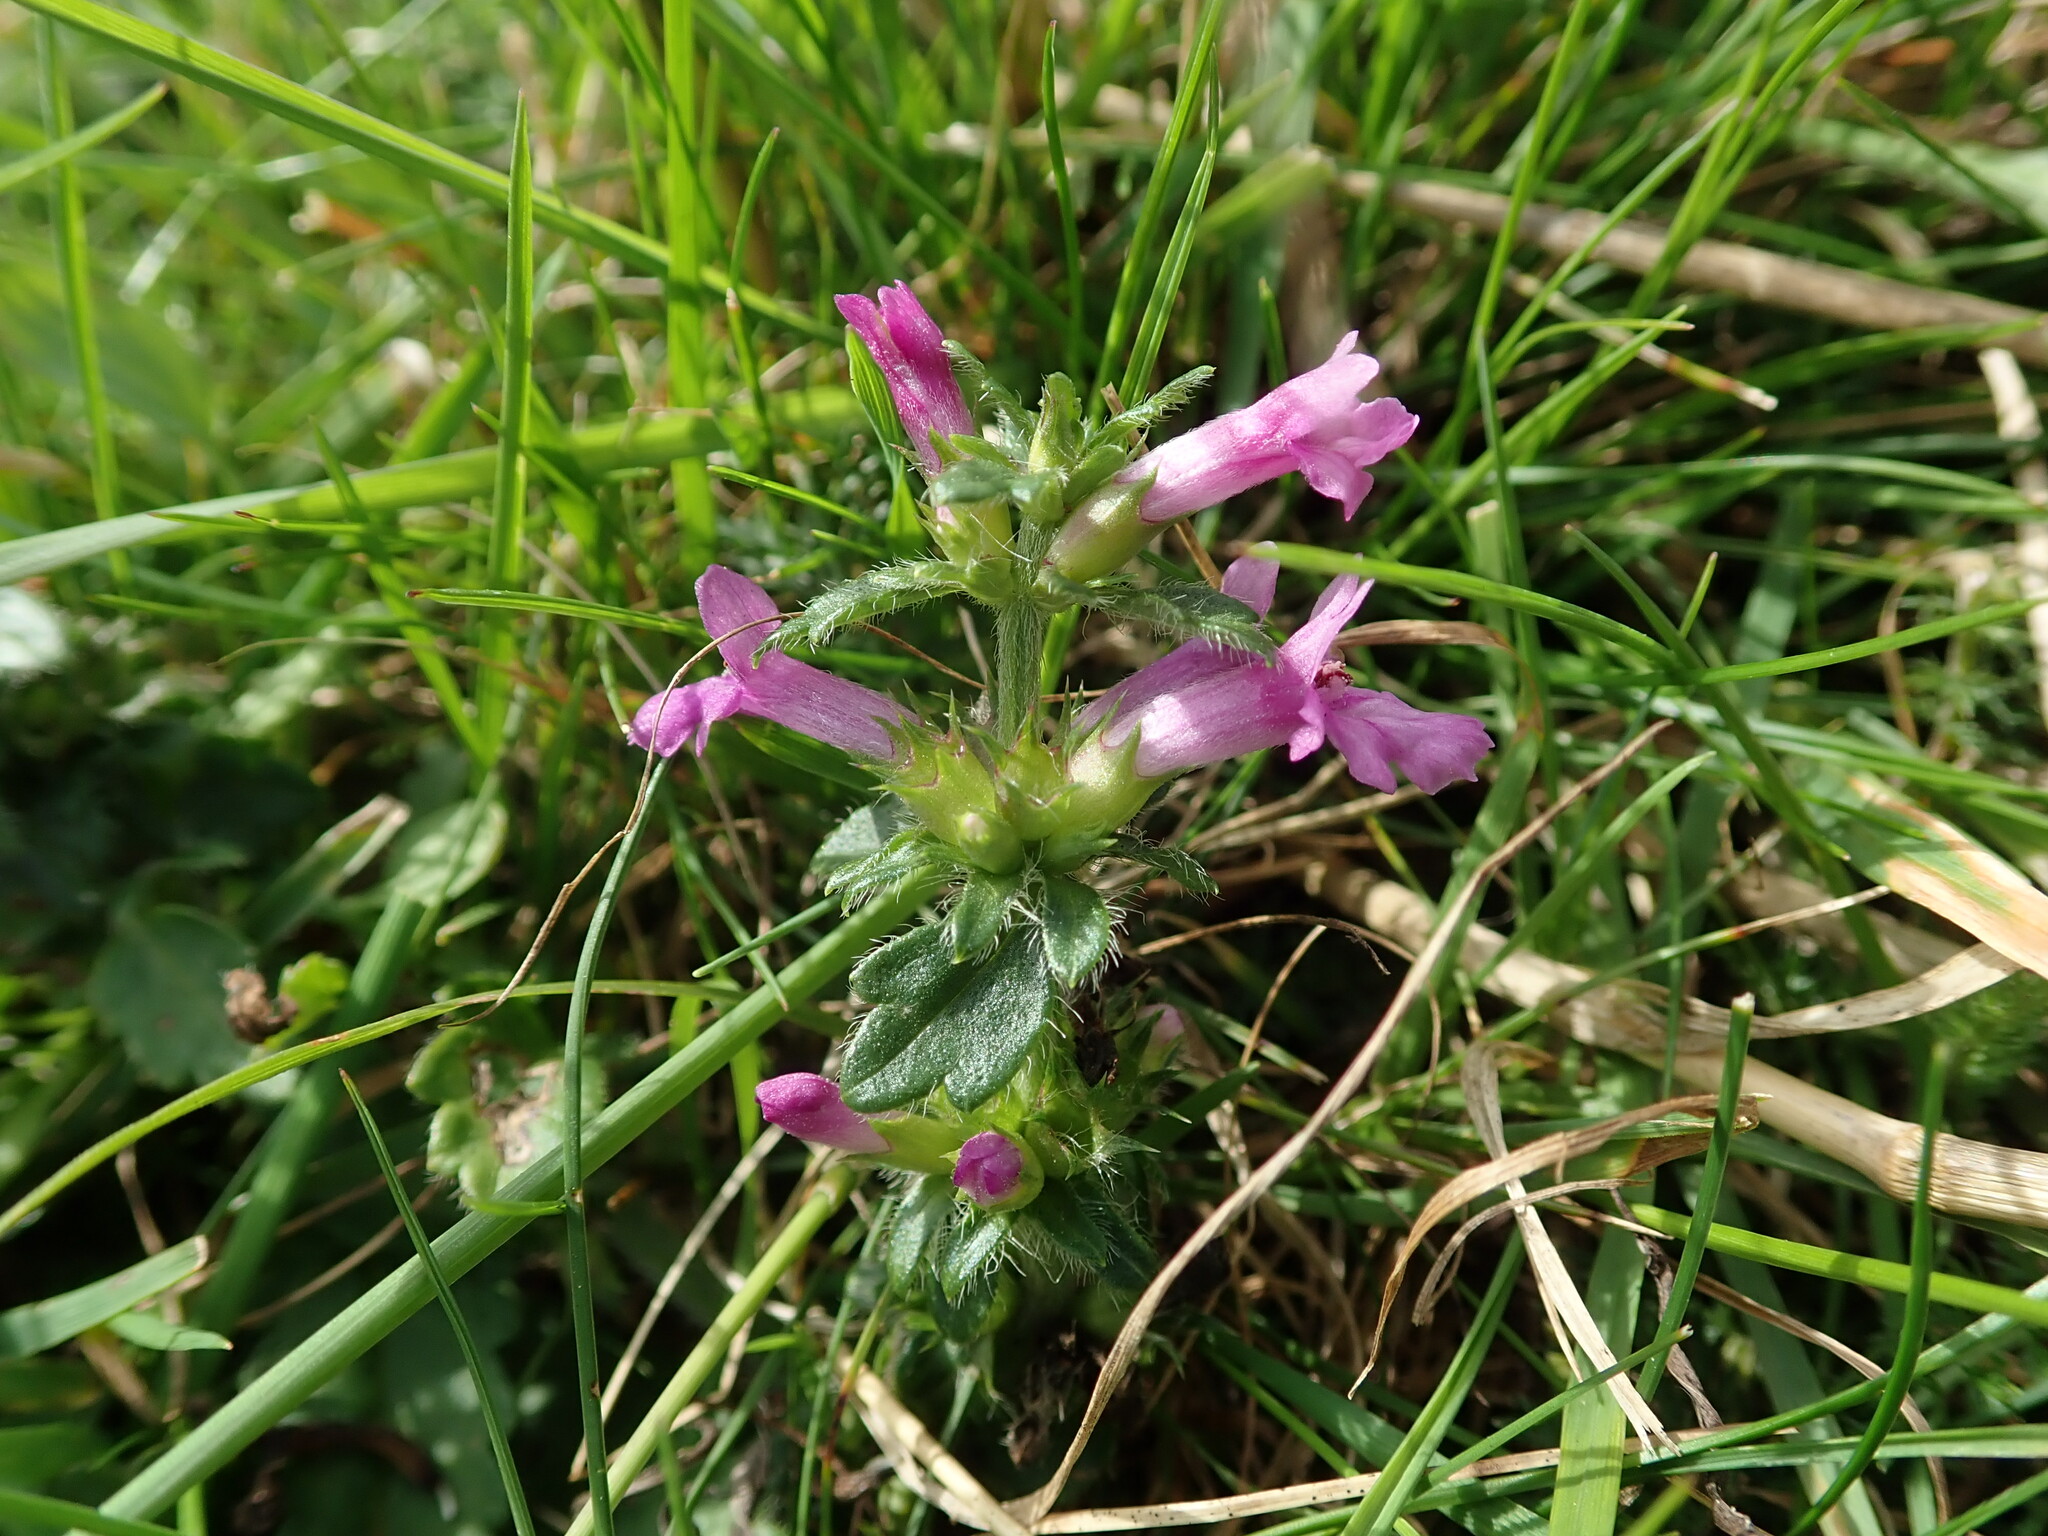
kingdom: Plantae
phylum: Tracheophyta
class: Magnoliopsida
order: Lamiales
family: Lamiaceae
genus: Betonica
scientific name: Betonica officinalis
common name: Bishop's-wort
